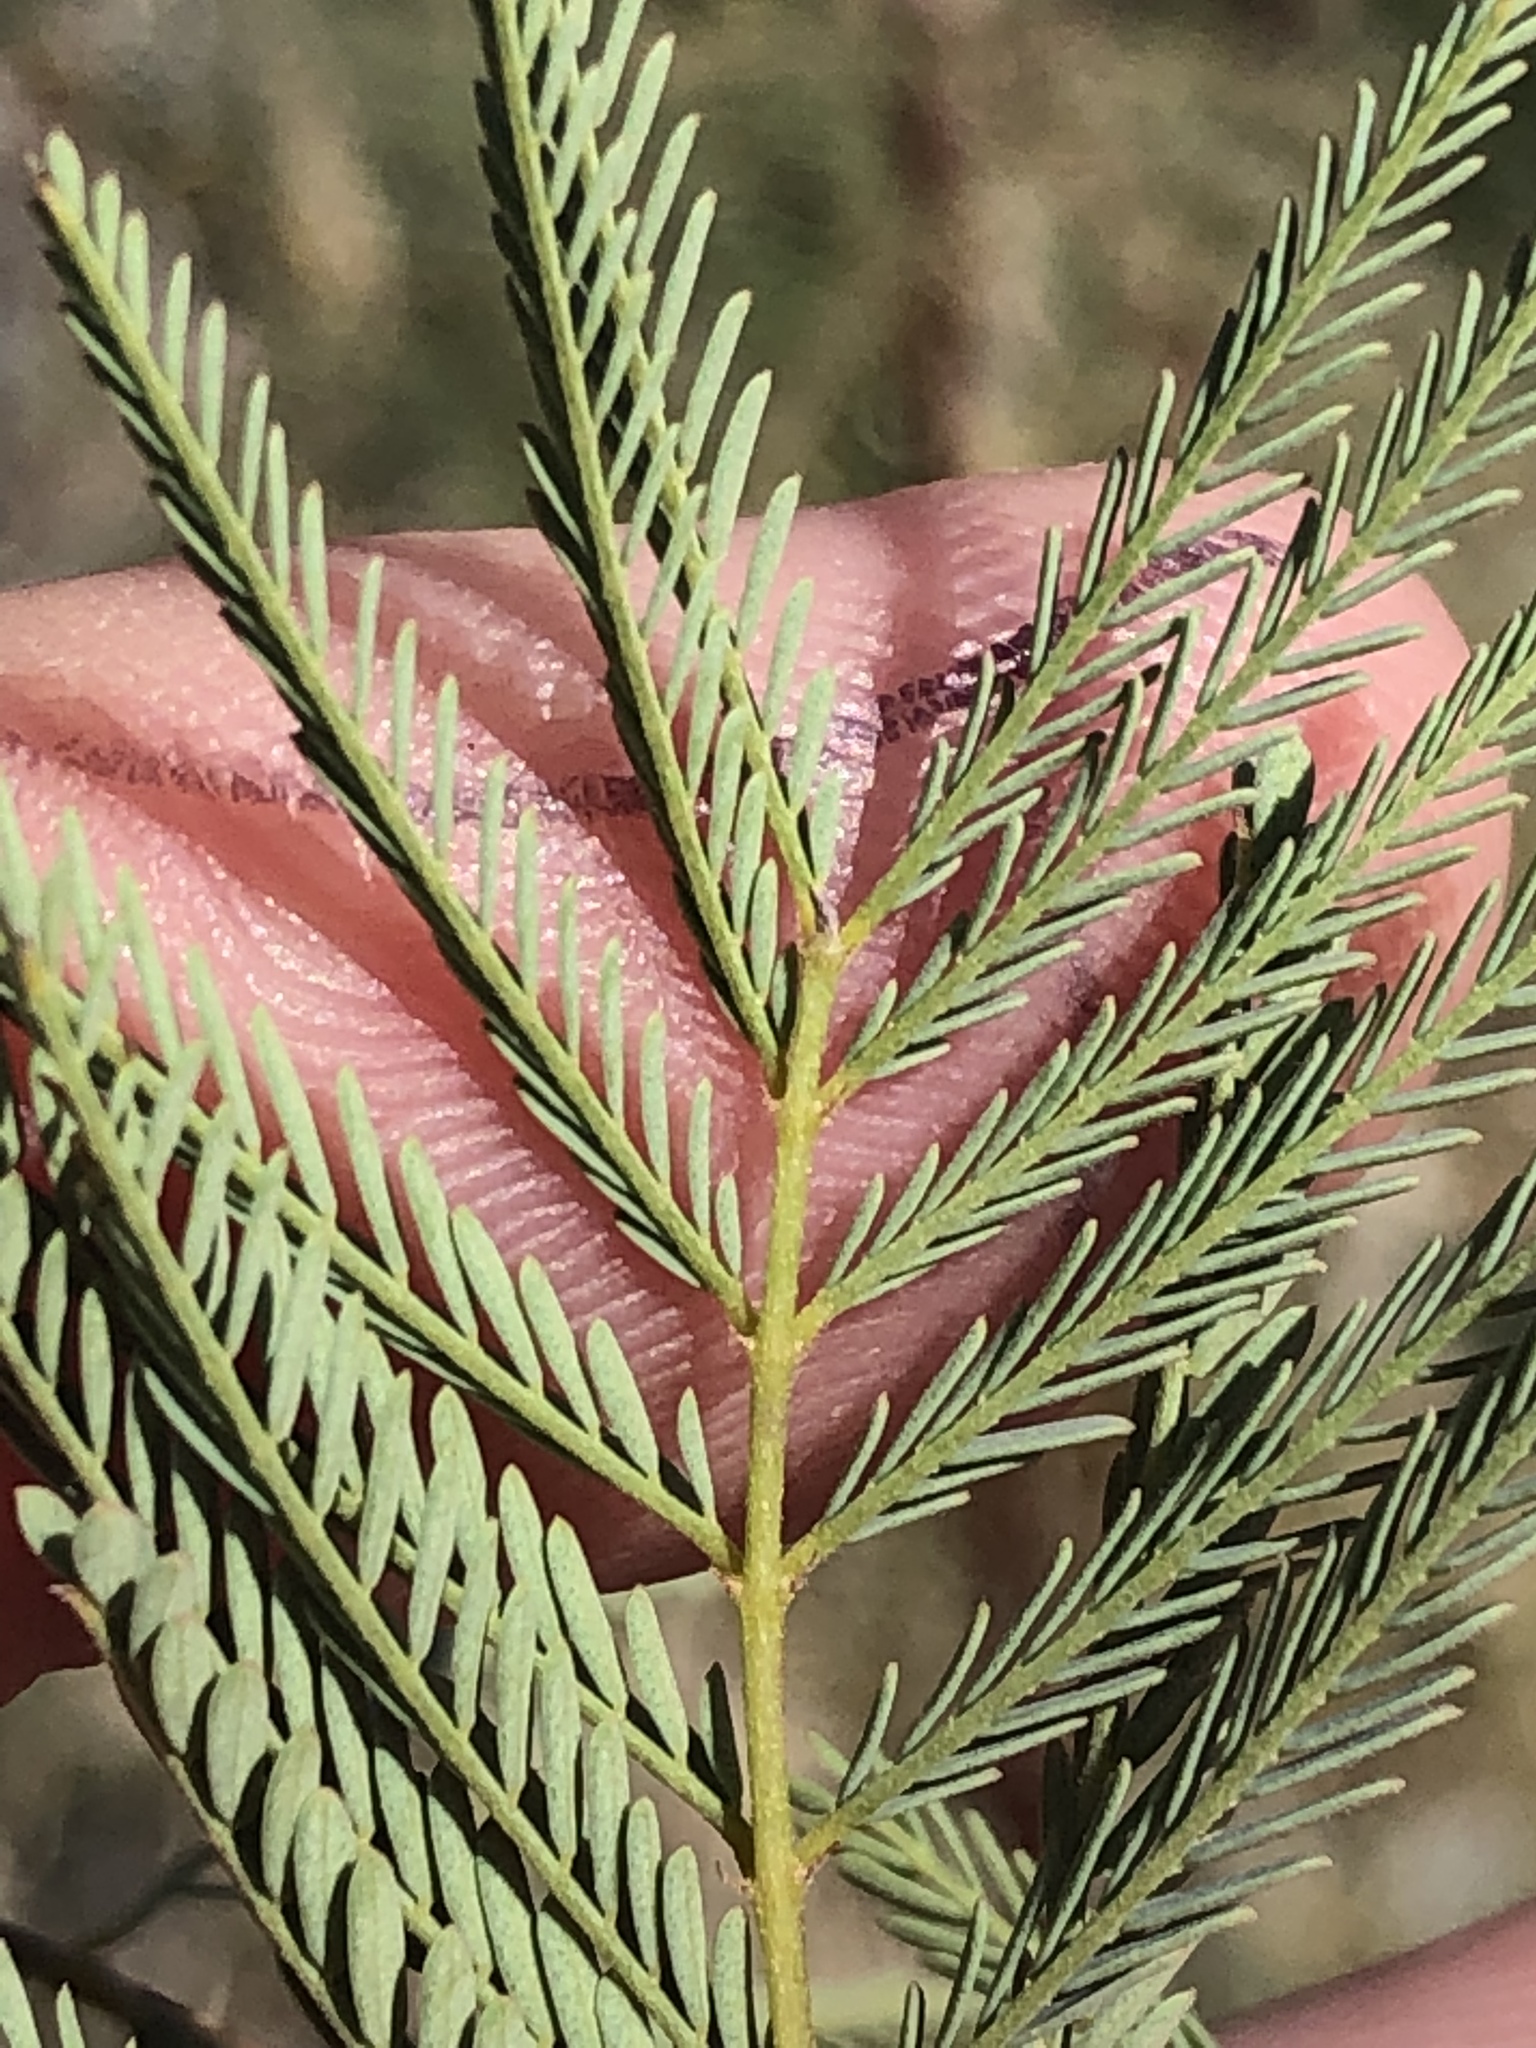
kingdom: Plantae
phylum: Tracheophyta
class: Magnoliopsida
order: Fabales
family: Fabaceae
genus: Gelrebia
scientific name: Gelrebia rubra
